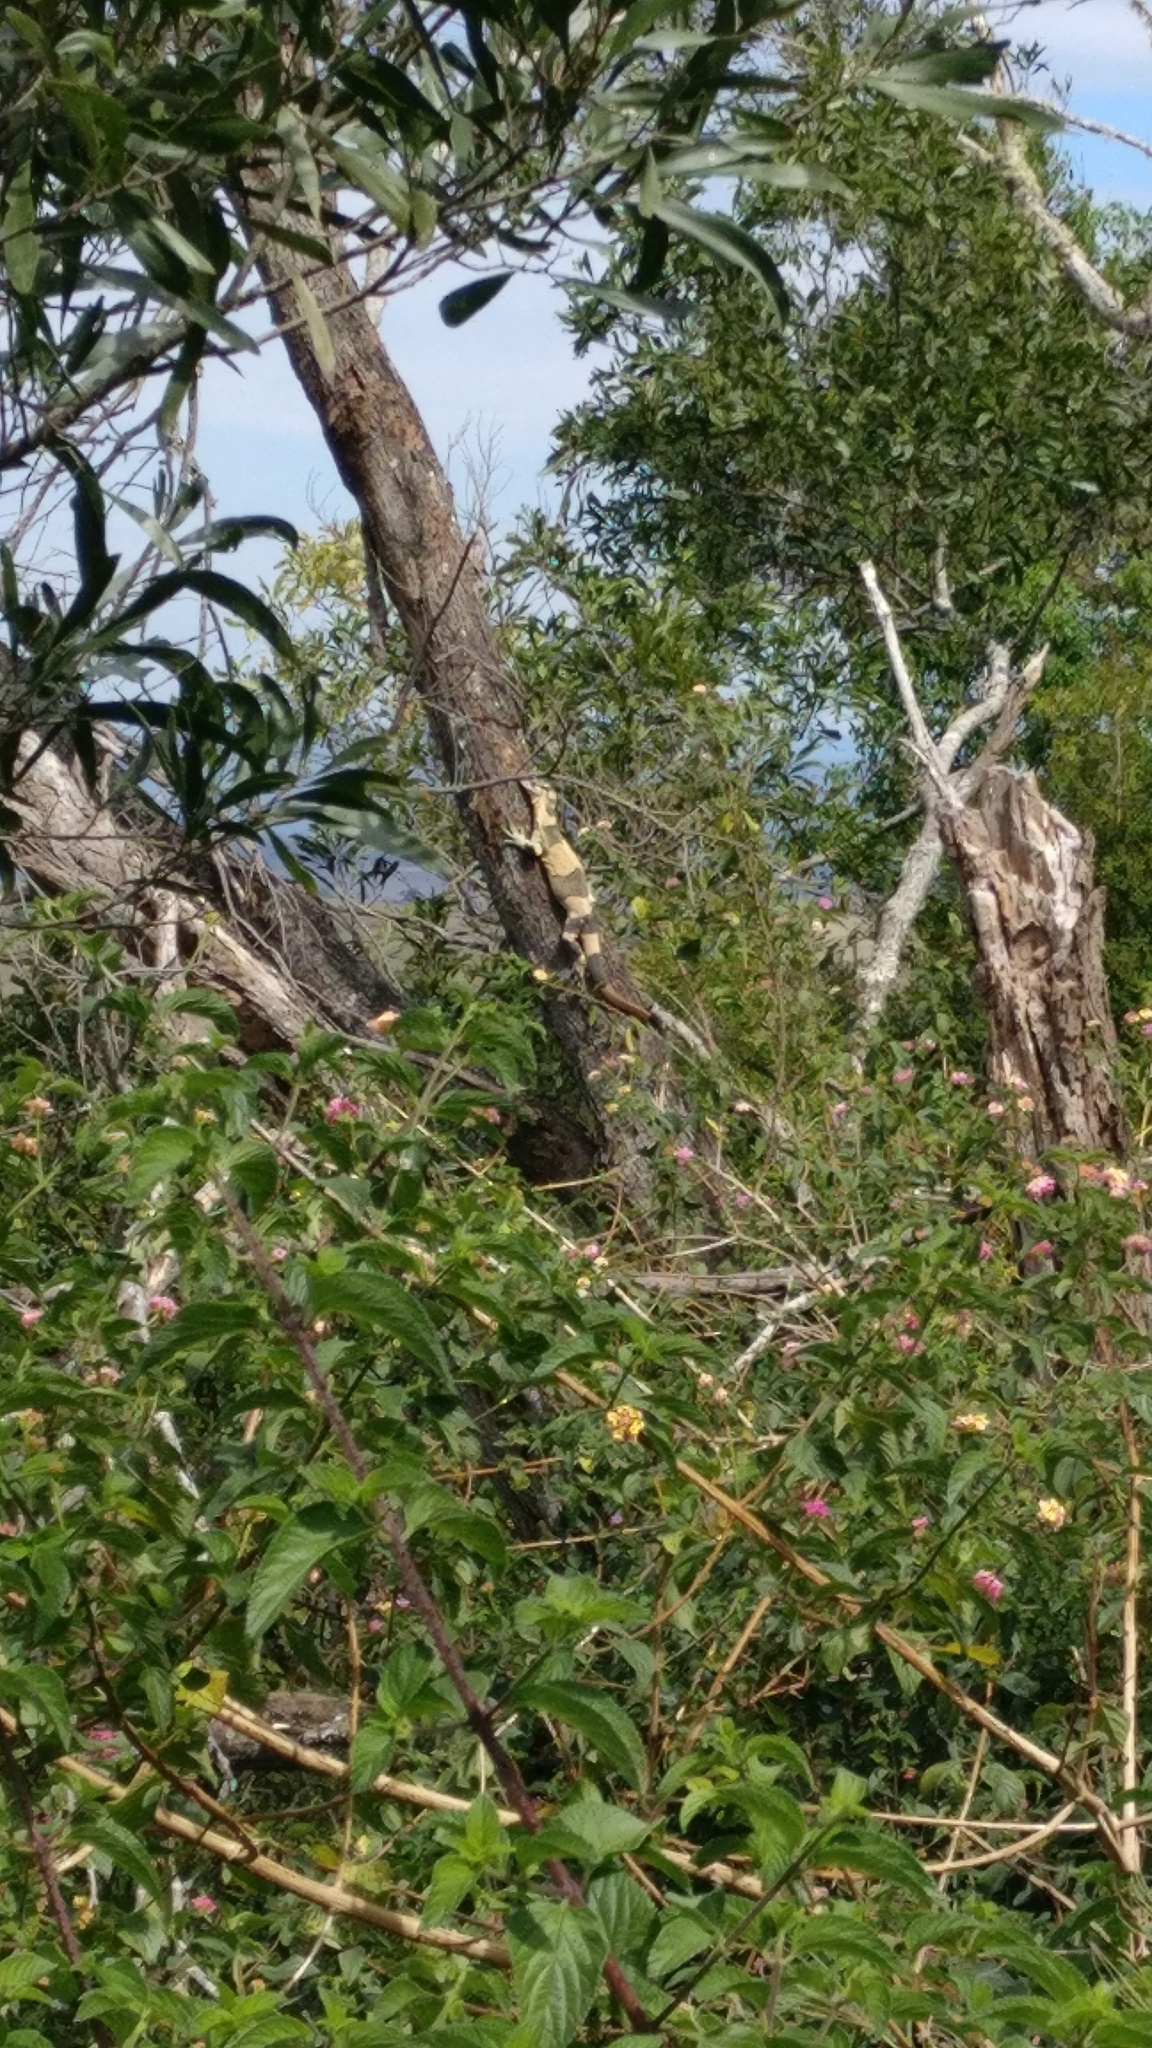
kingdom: Animalia
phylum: Chordata
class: Squamata
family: Varanidae
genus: Varanus
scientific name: Varanus varius
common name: Lace monitor
